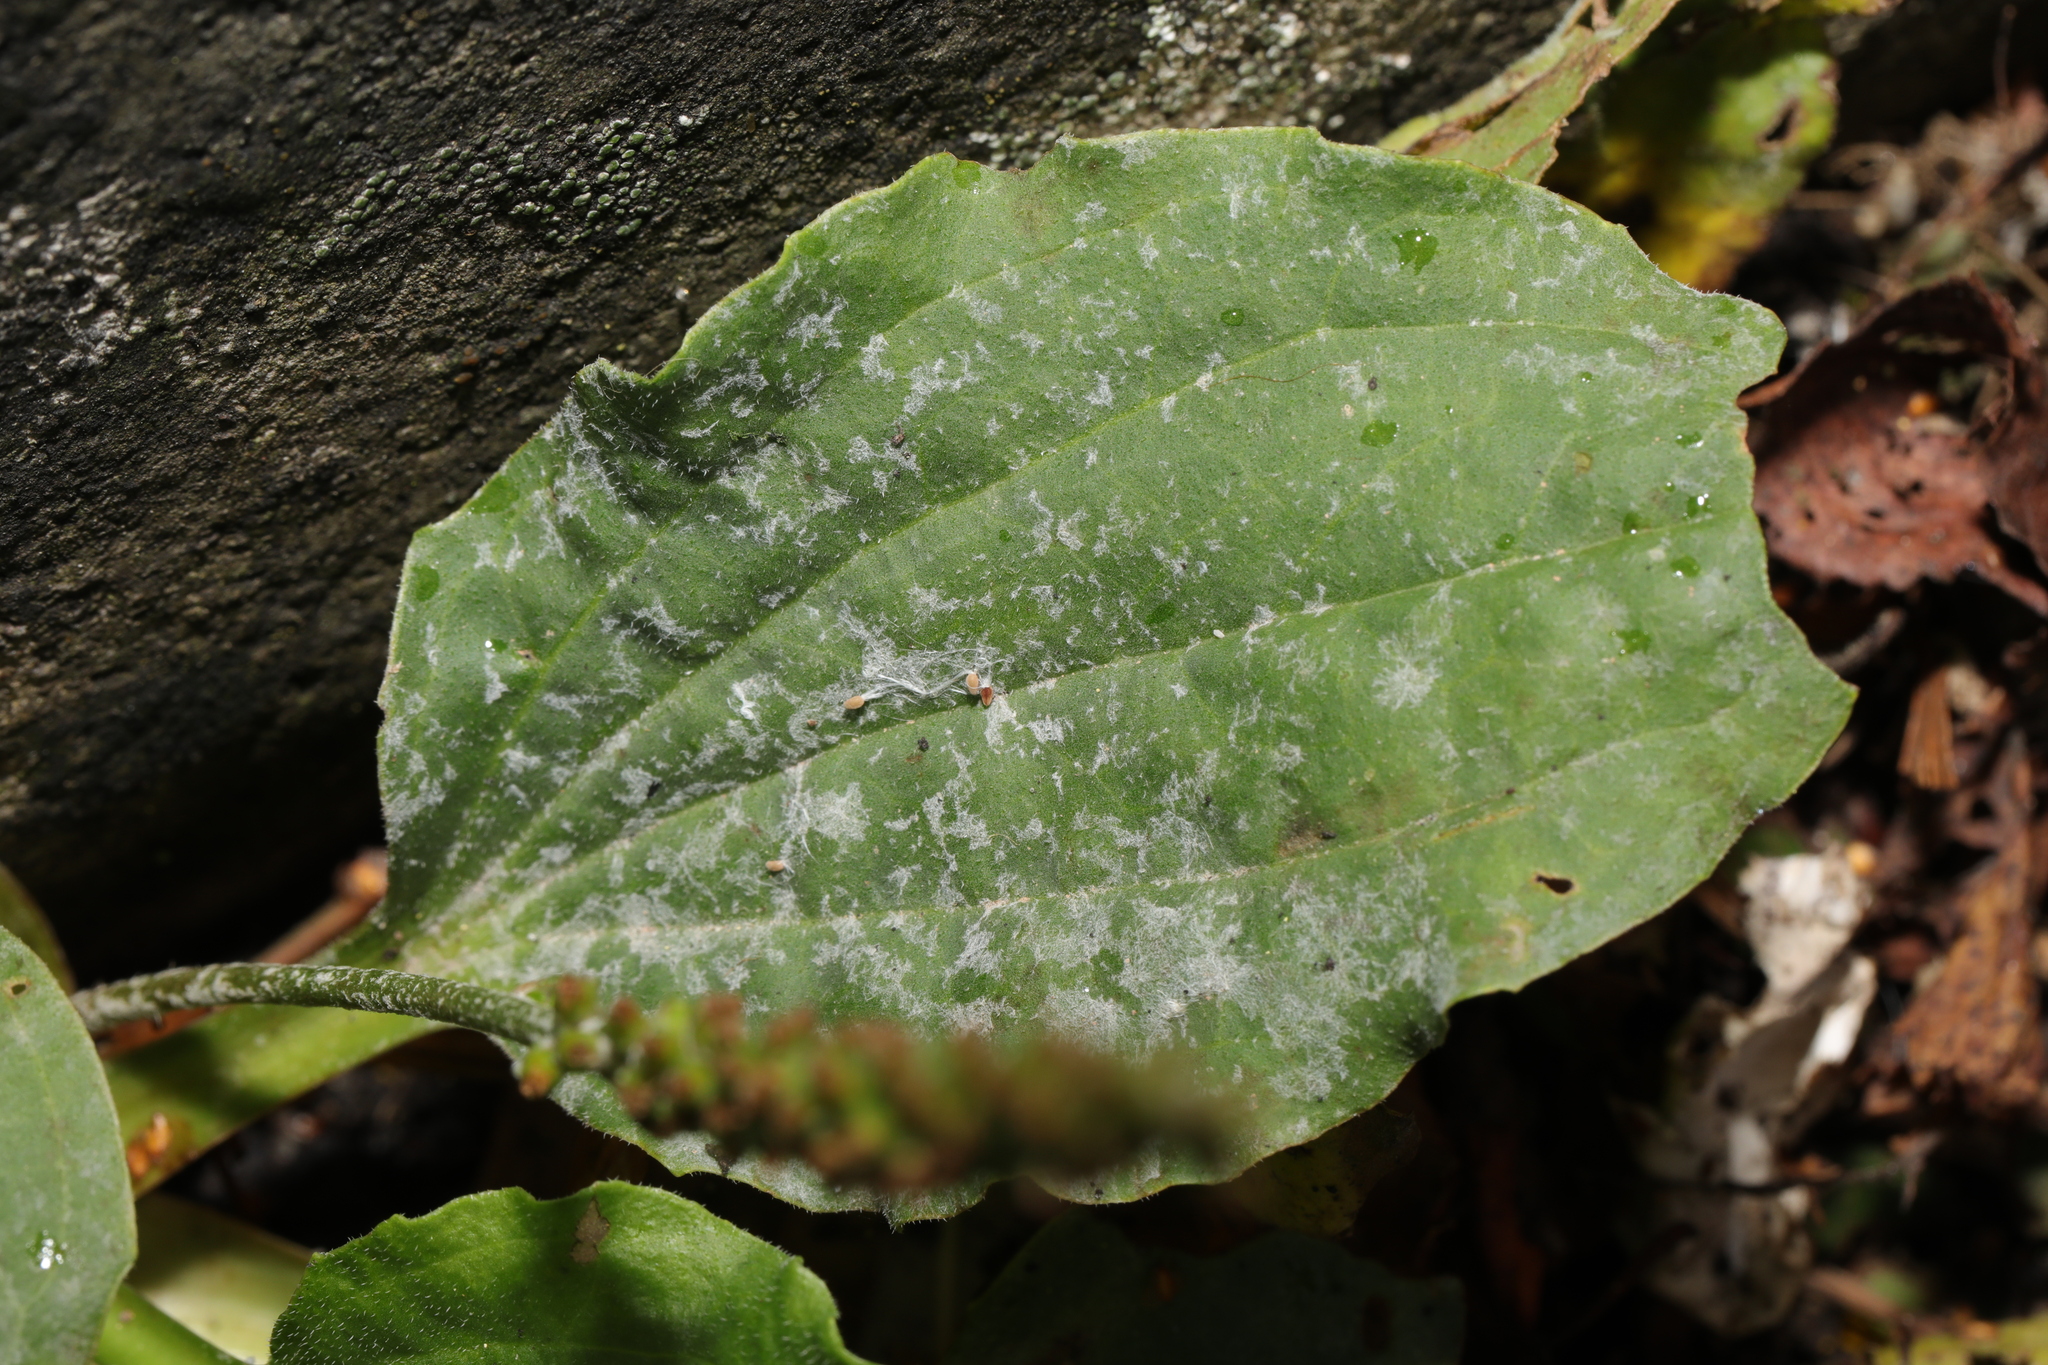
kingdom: Fungi
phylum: Ascomycota
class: Leotiomycetes
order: Helotiales
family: Erysiphaceae
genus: Golovinomyces
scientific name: Golovinomyces sordidus
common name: Plantain mildew
